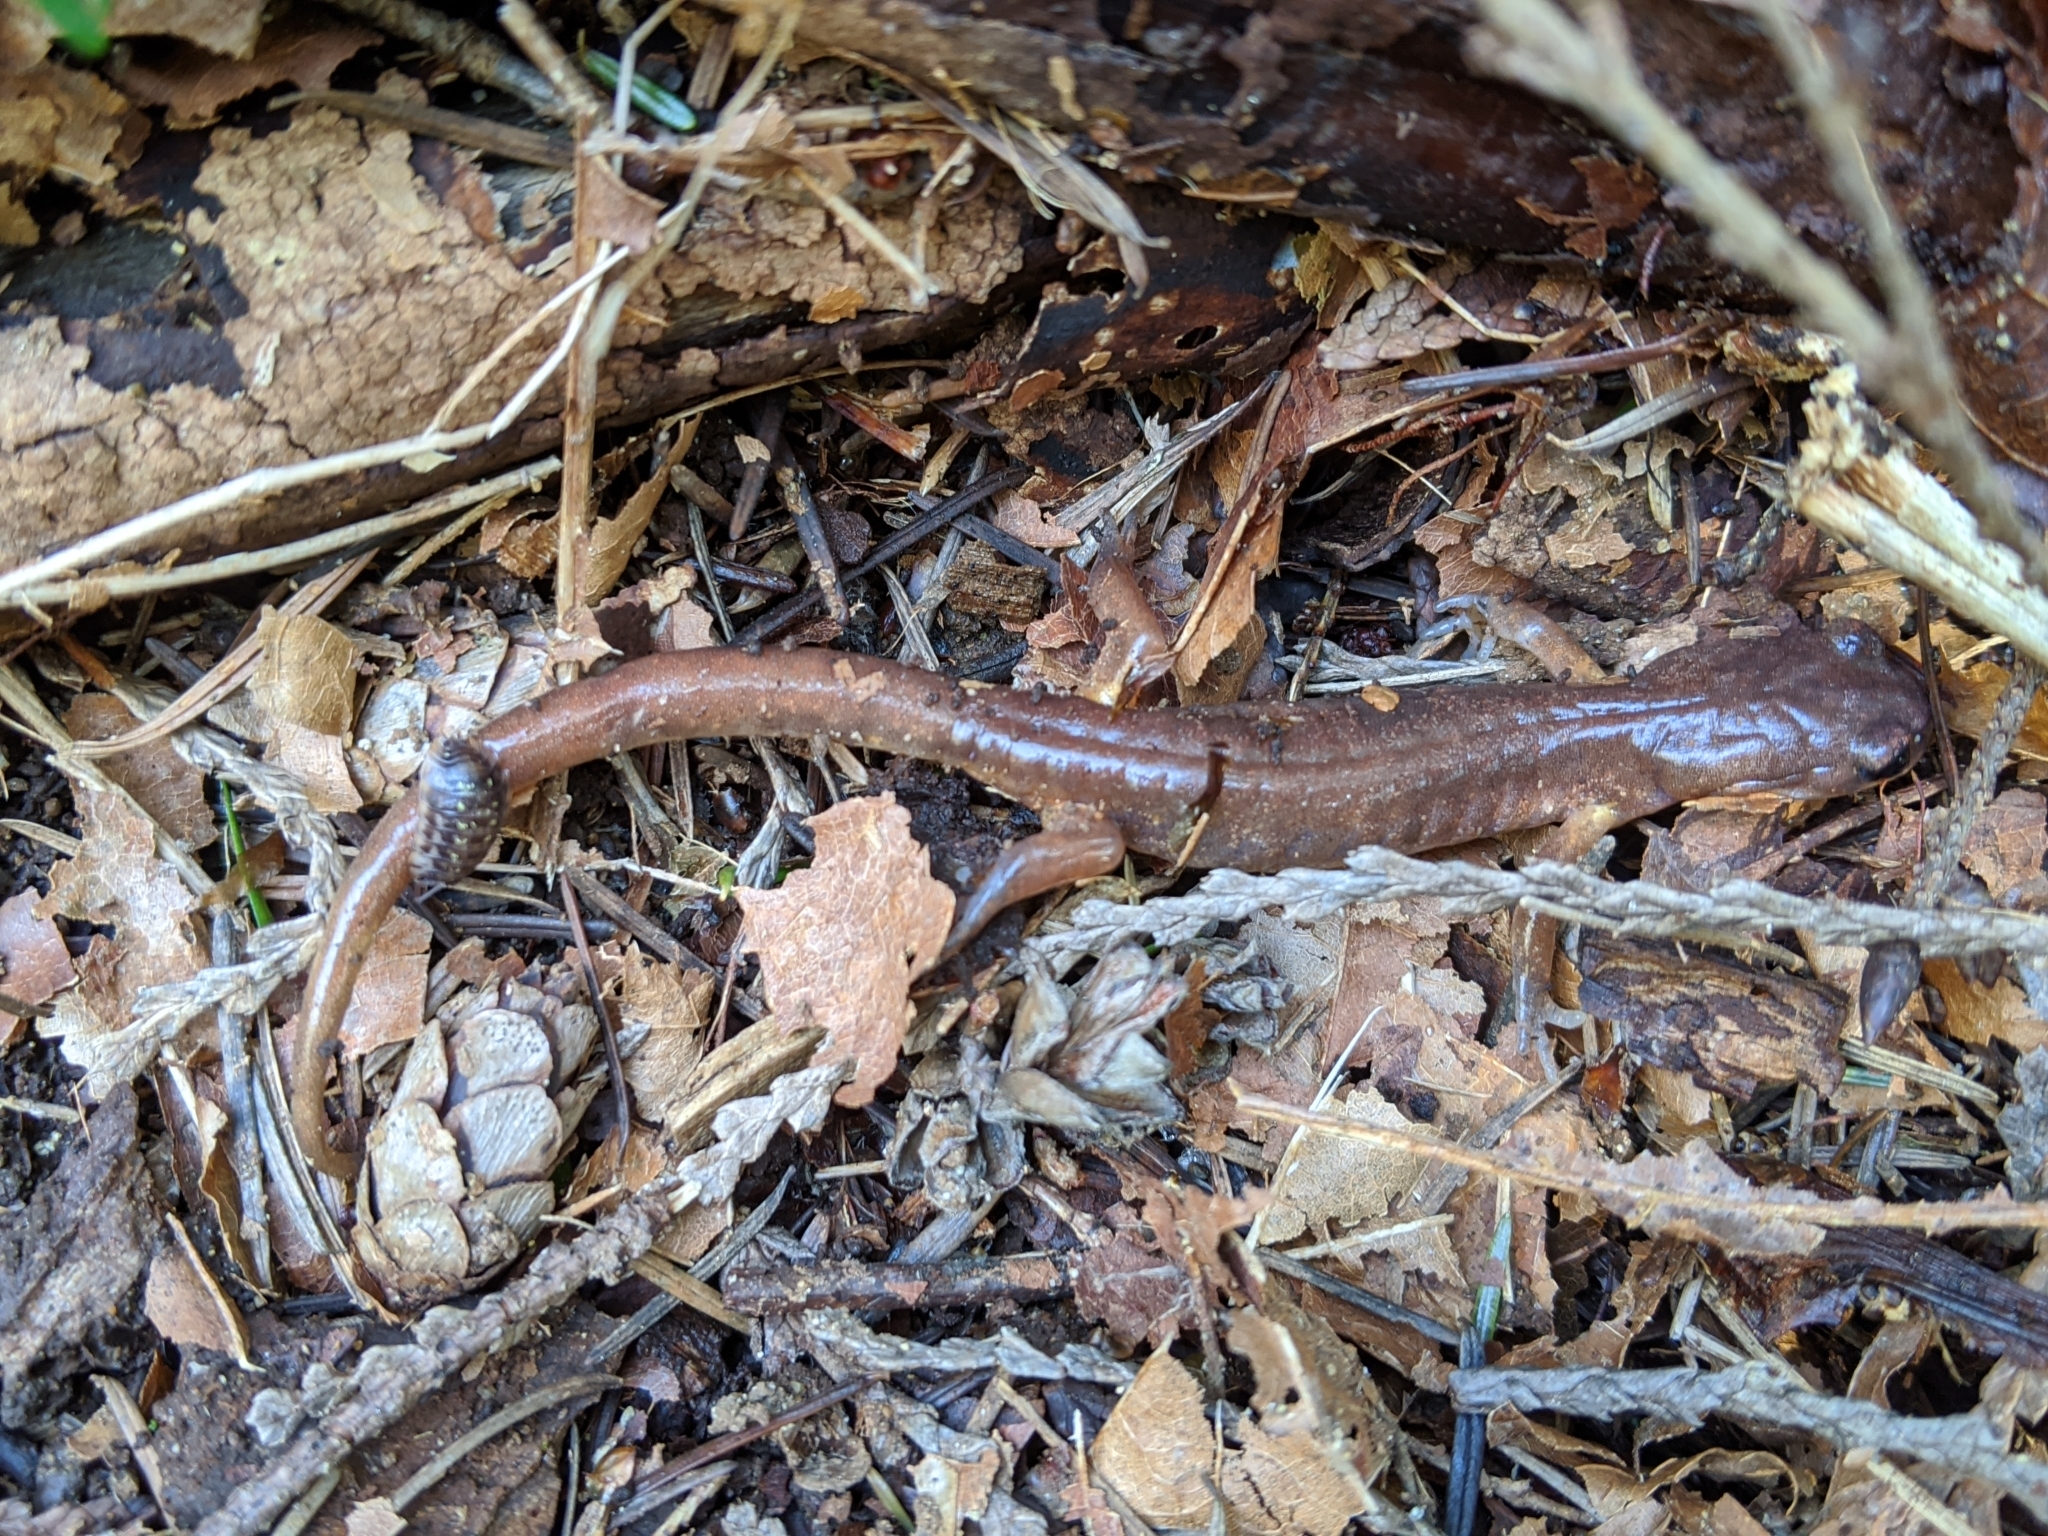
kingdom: Animalia
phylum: Chordata
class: Amphibia
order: Caudata
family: Plethodontidae
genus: Ensatina
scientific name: Ensatina eschscholtzii
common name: Ensatina
